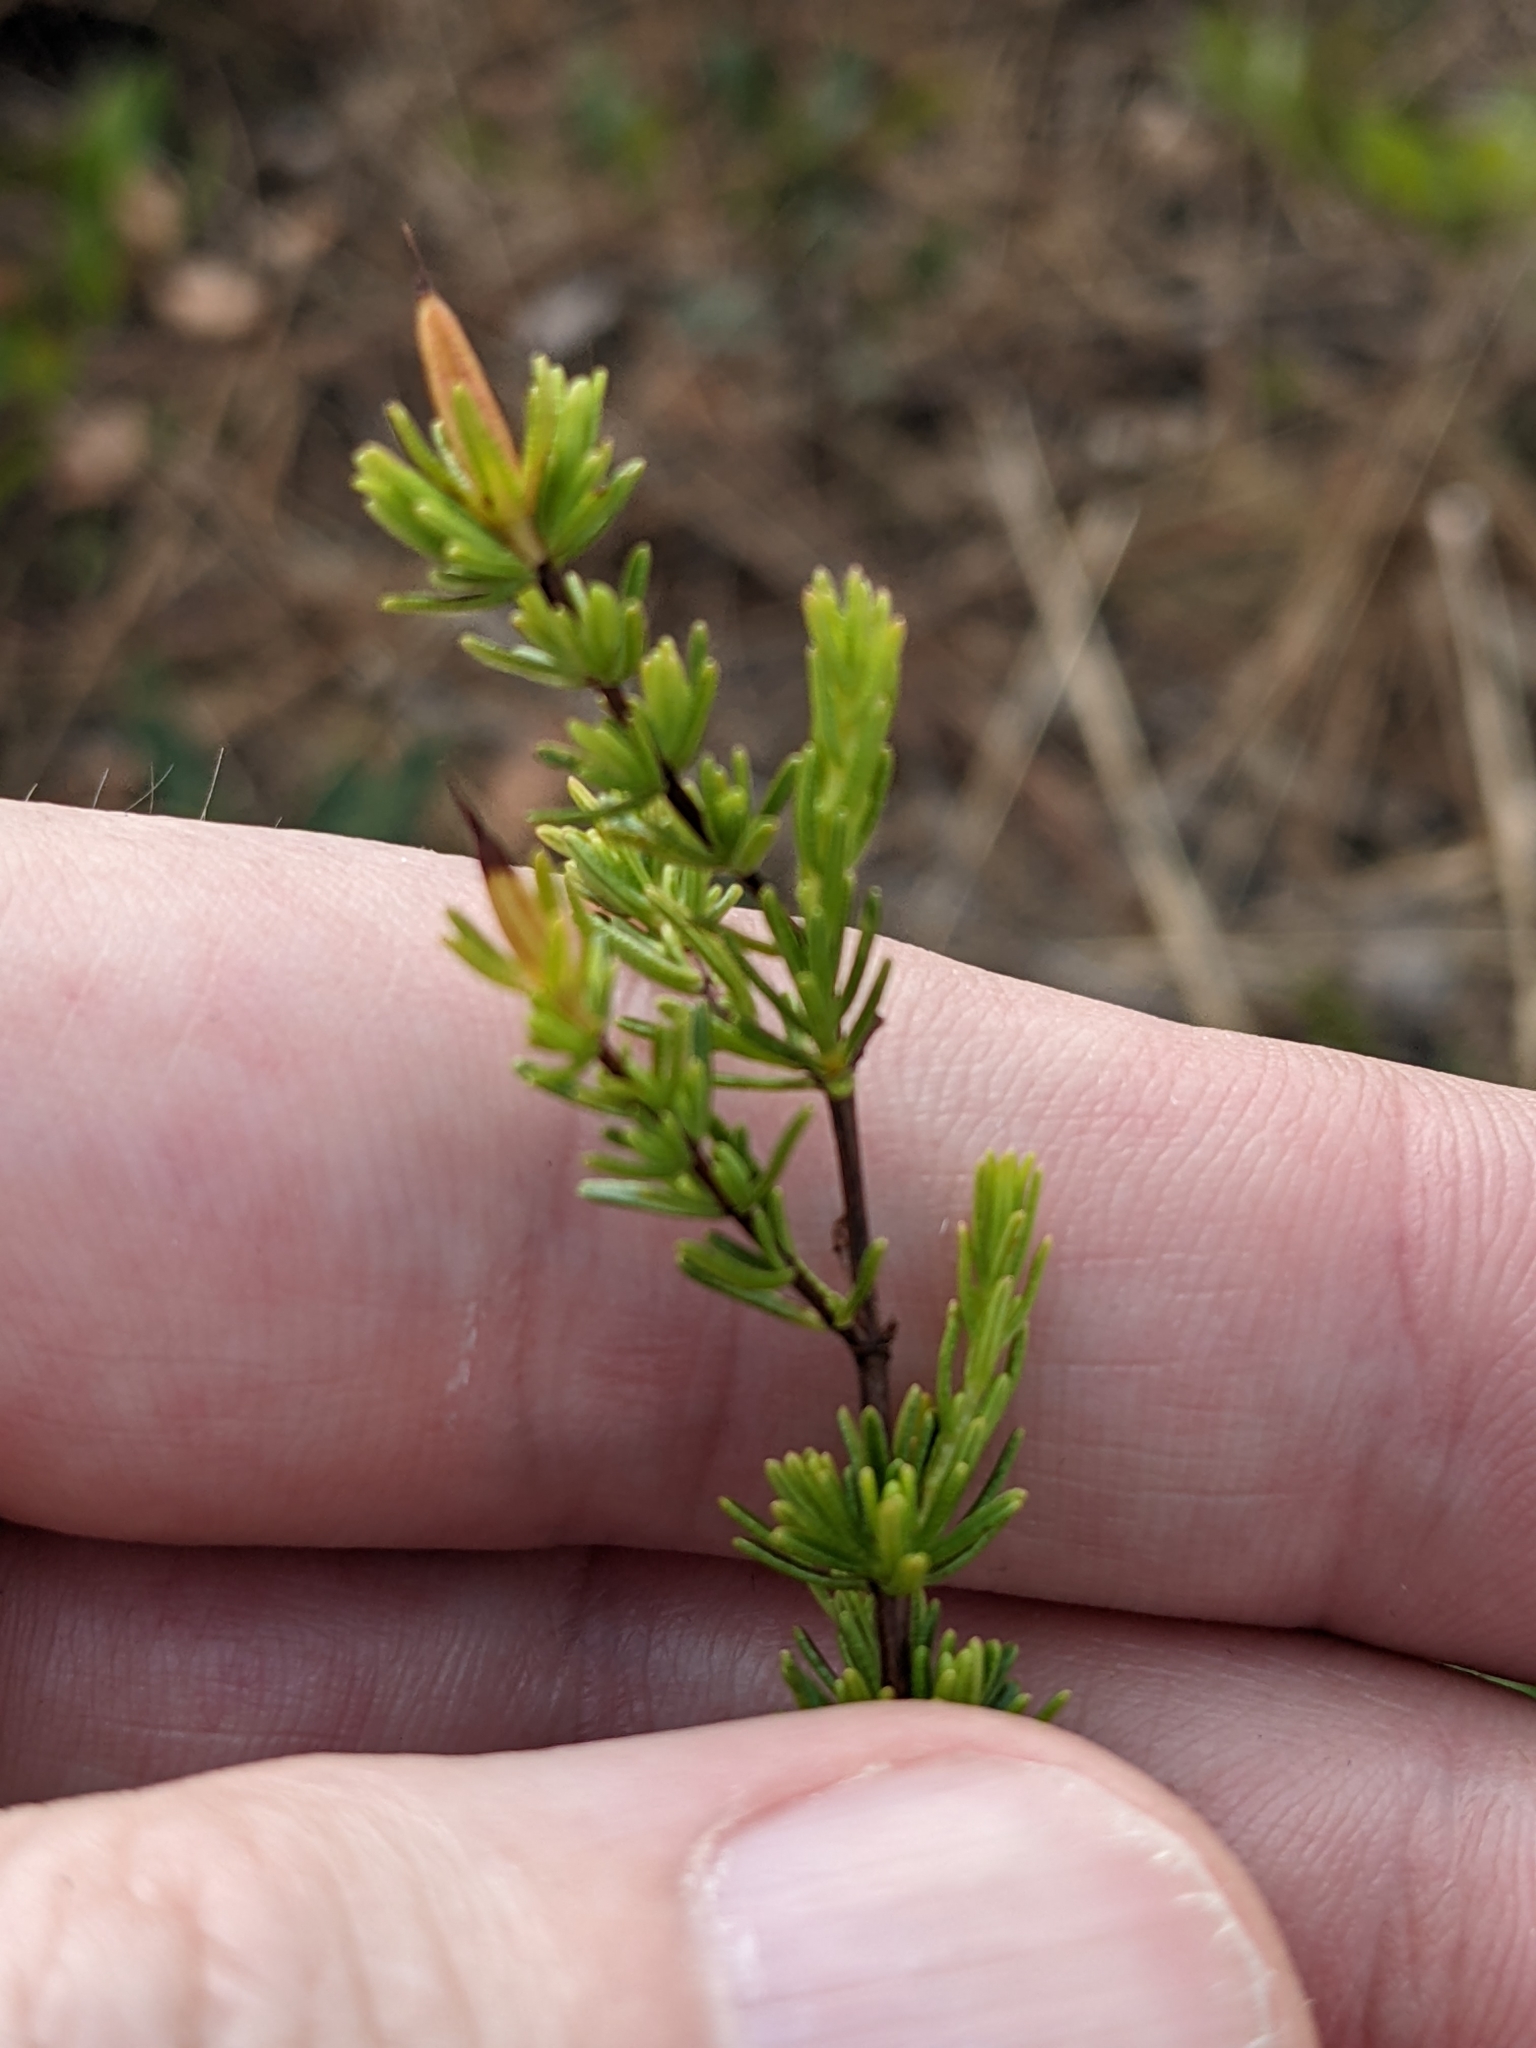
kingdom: Plantae
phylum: Tracheophyta
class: Magnoliopsida
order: Malpighiales
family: Hypericaceae
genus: Hypericum
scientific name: Hypericum tenuifolium
